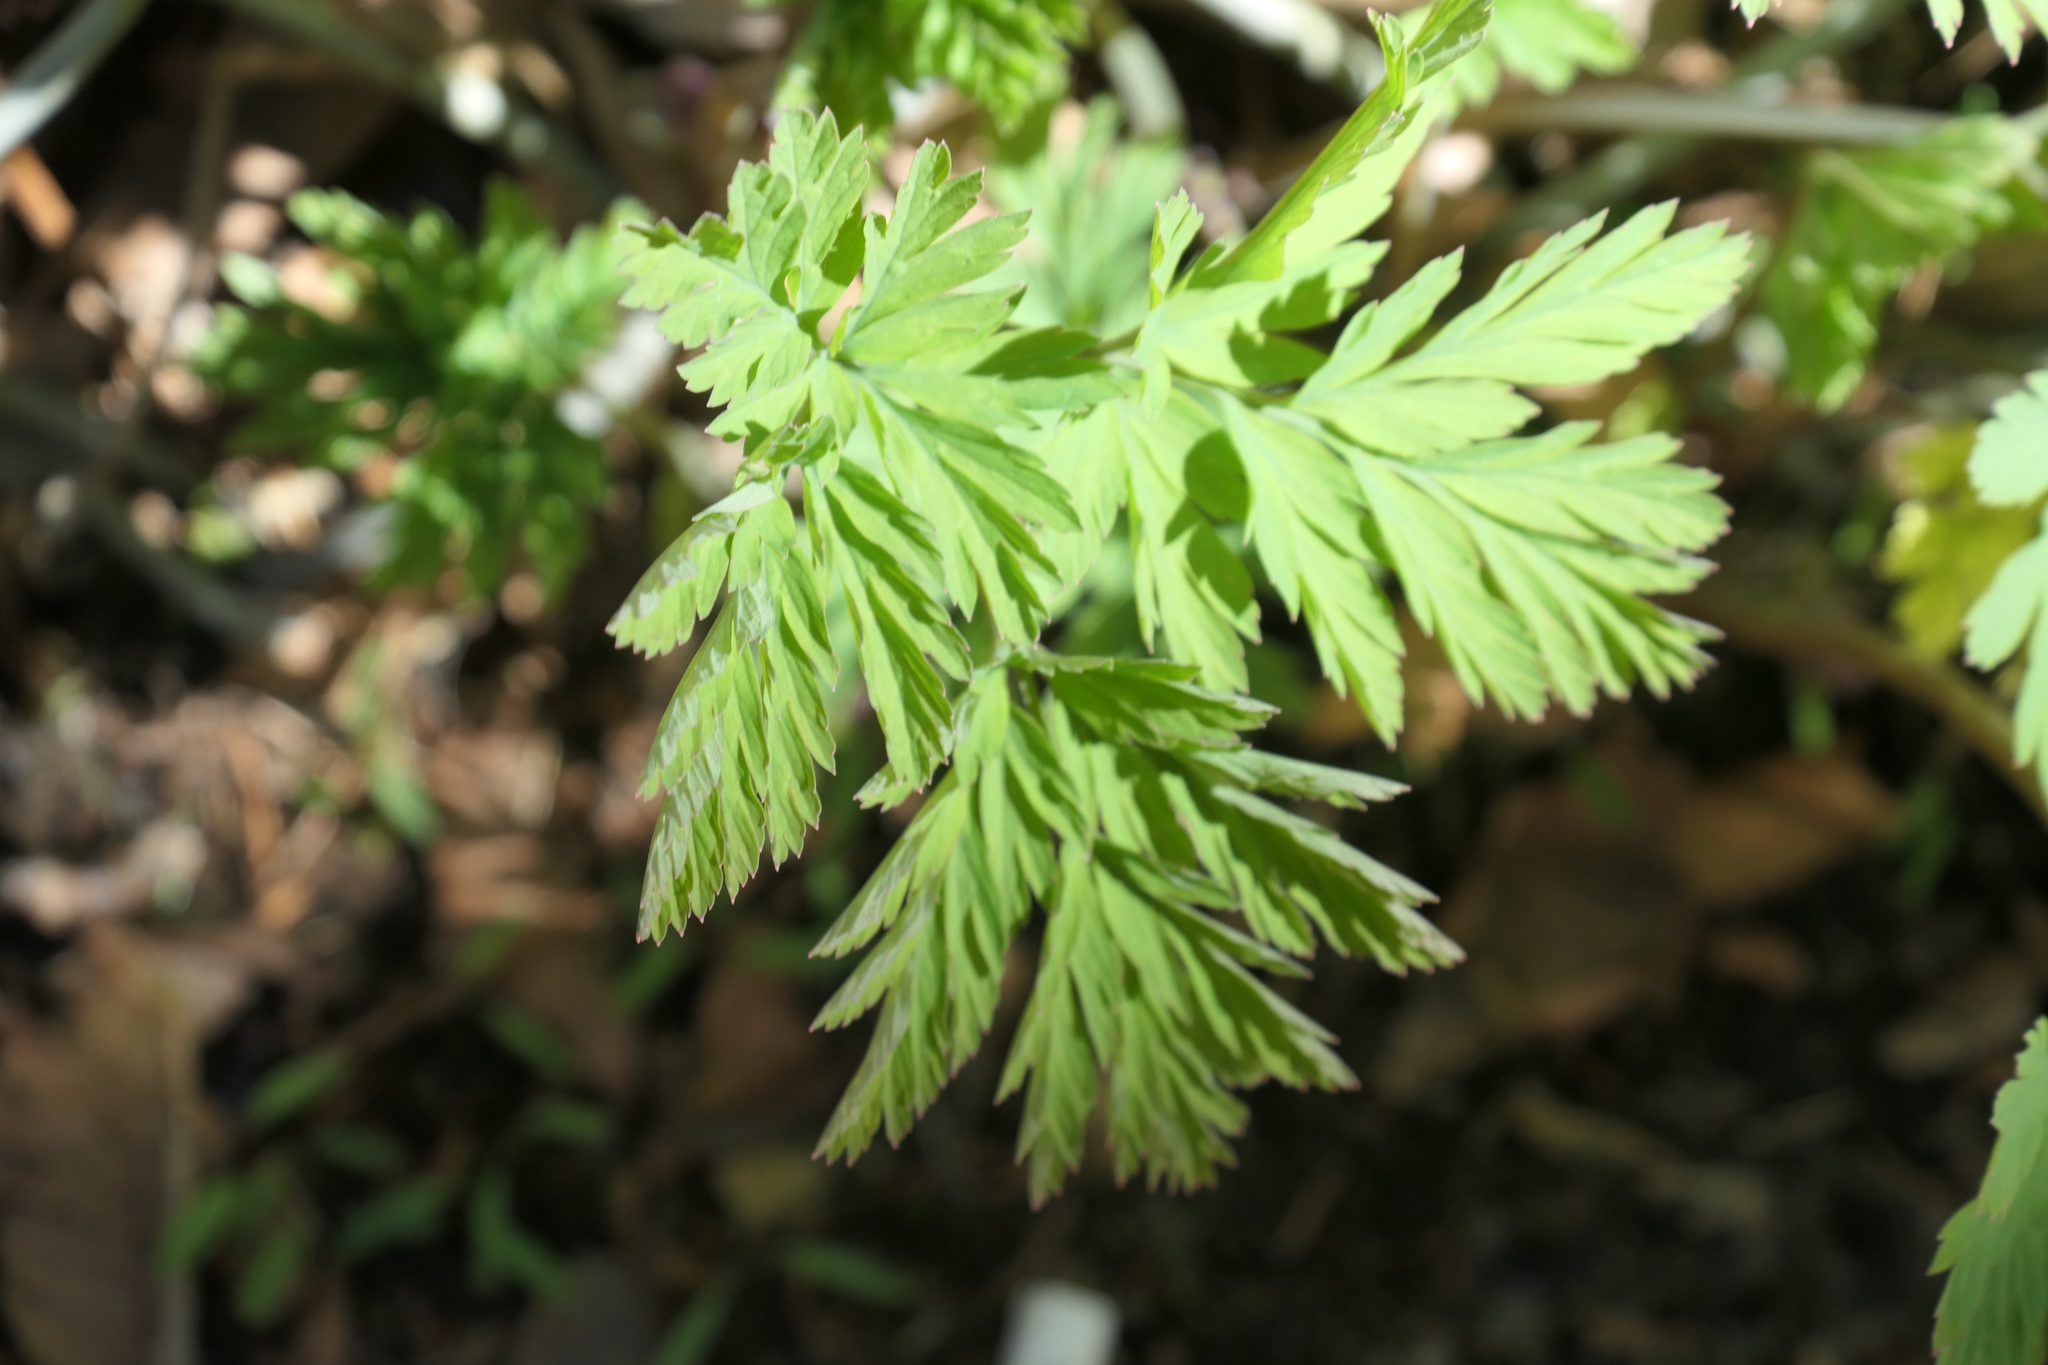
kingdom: Plantae
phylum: Tracheophyta
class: Magnoliopsida
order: Ranunculales
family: Papaveraceae
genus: Dicentra
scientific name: Dicentra formosa
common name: Bleeding-heart
